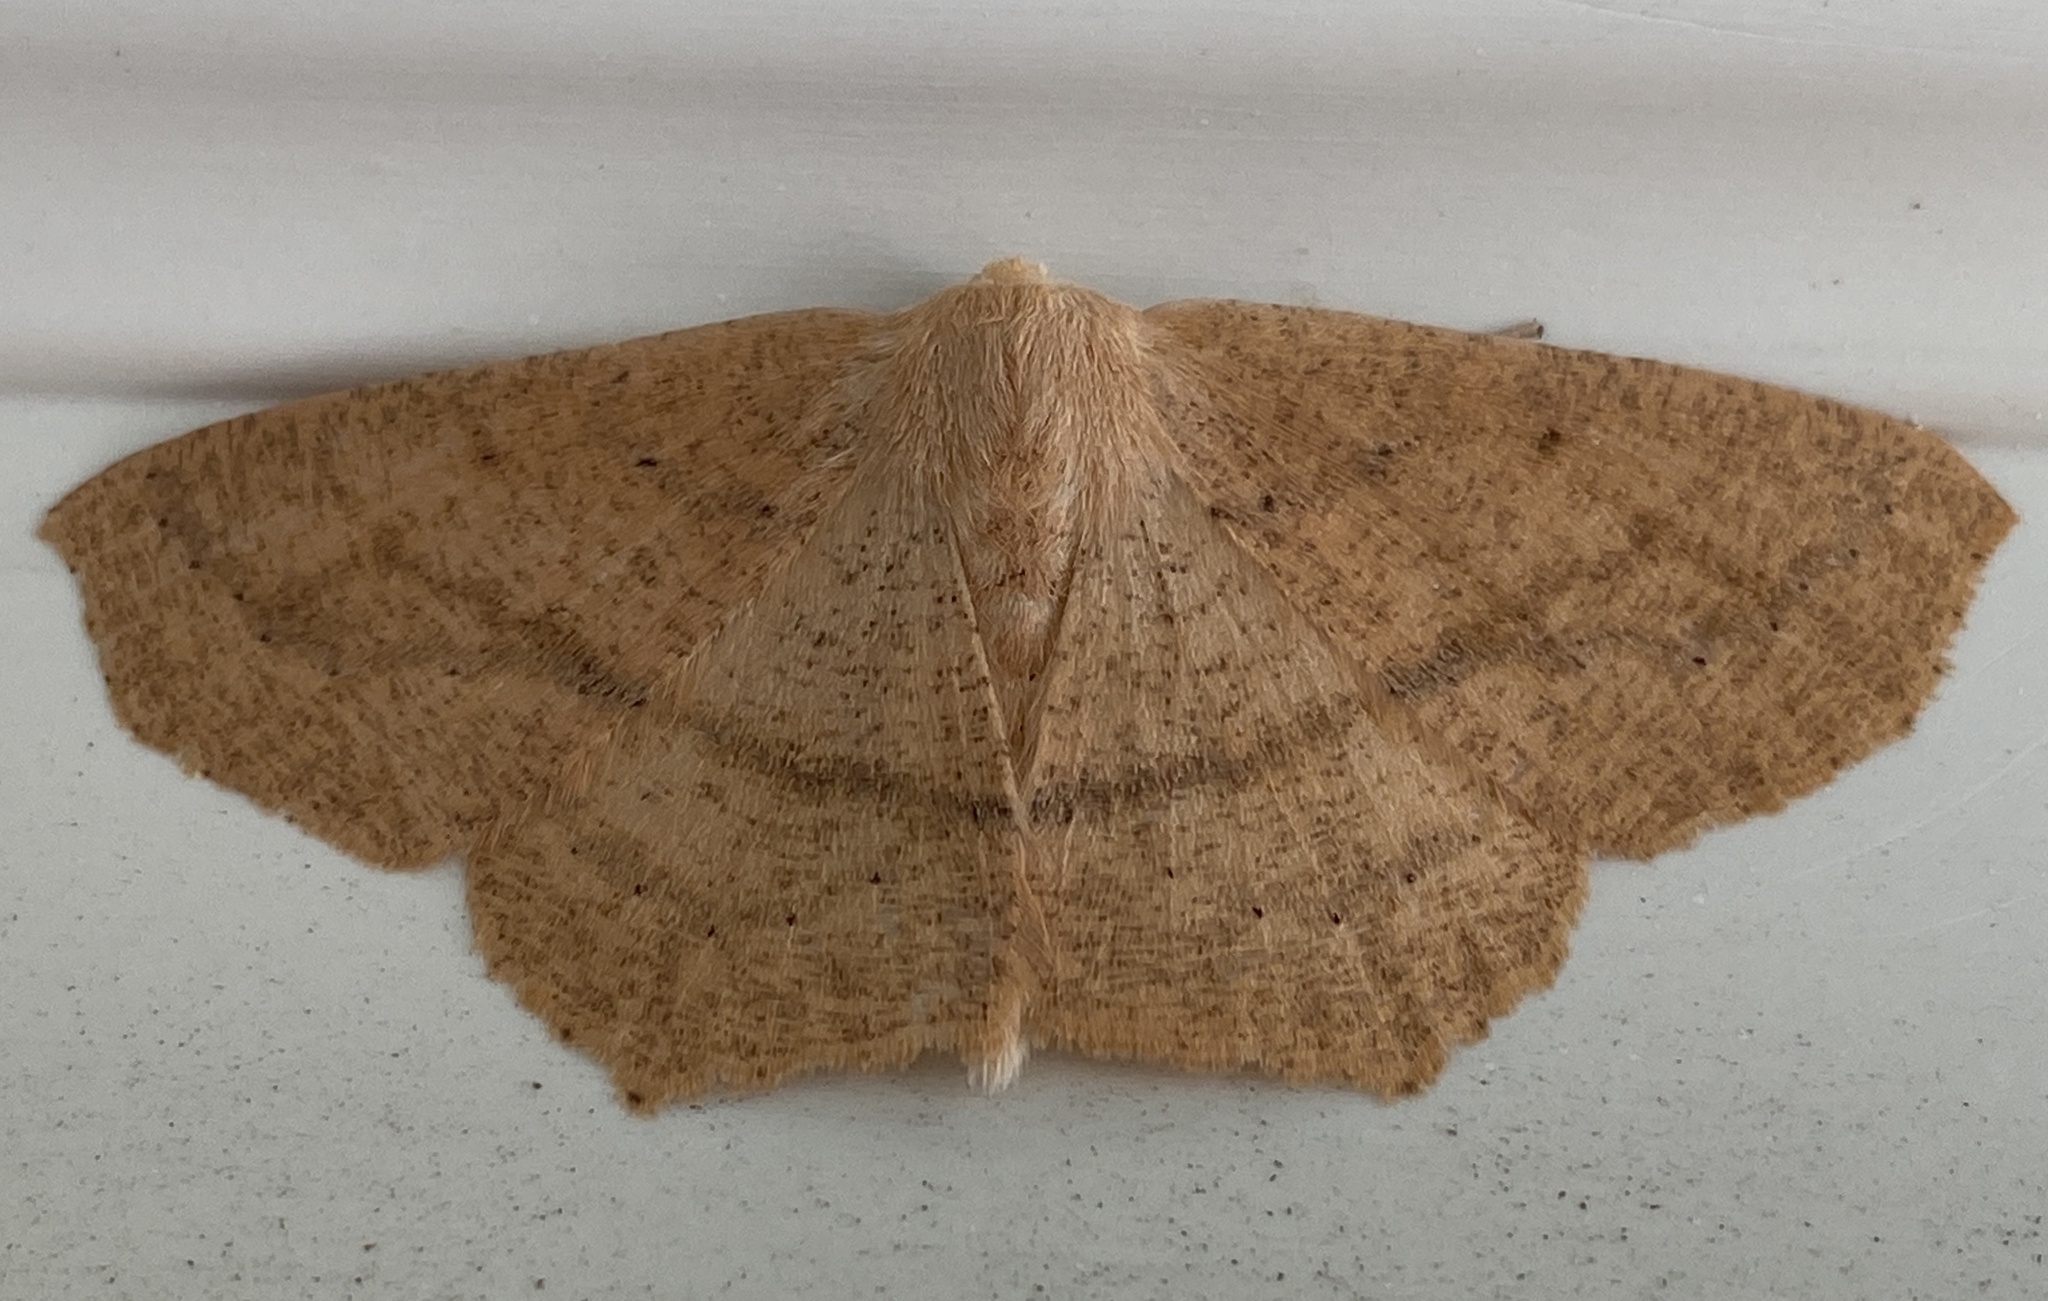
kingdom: Animalia
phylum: Arthropoda
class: Insecta
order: Lepidoptera
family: Geometridae
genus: Sabulodes
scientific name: Sabulodes aegrotata
